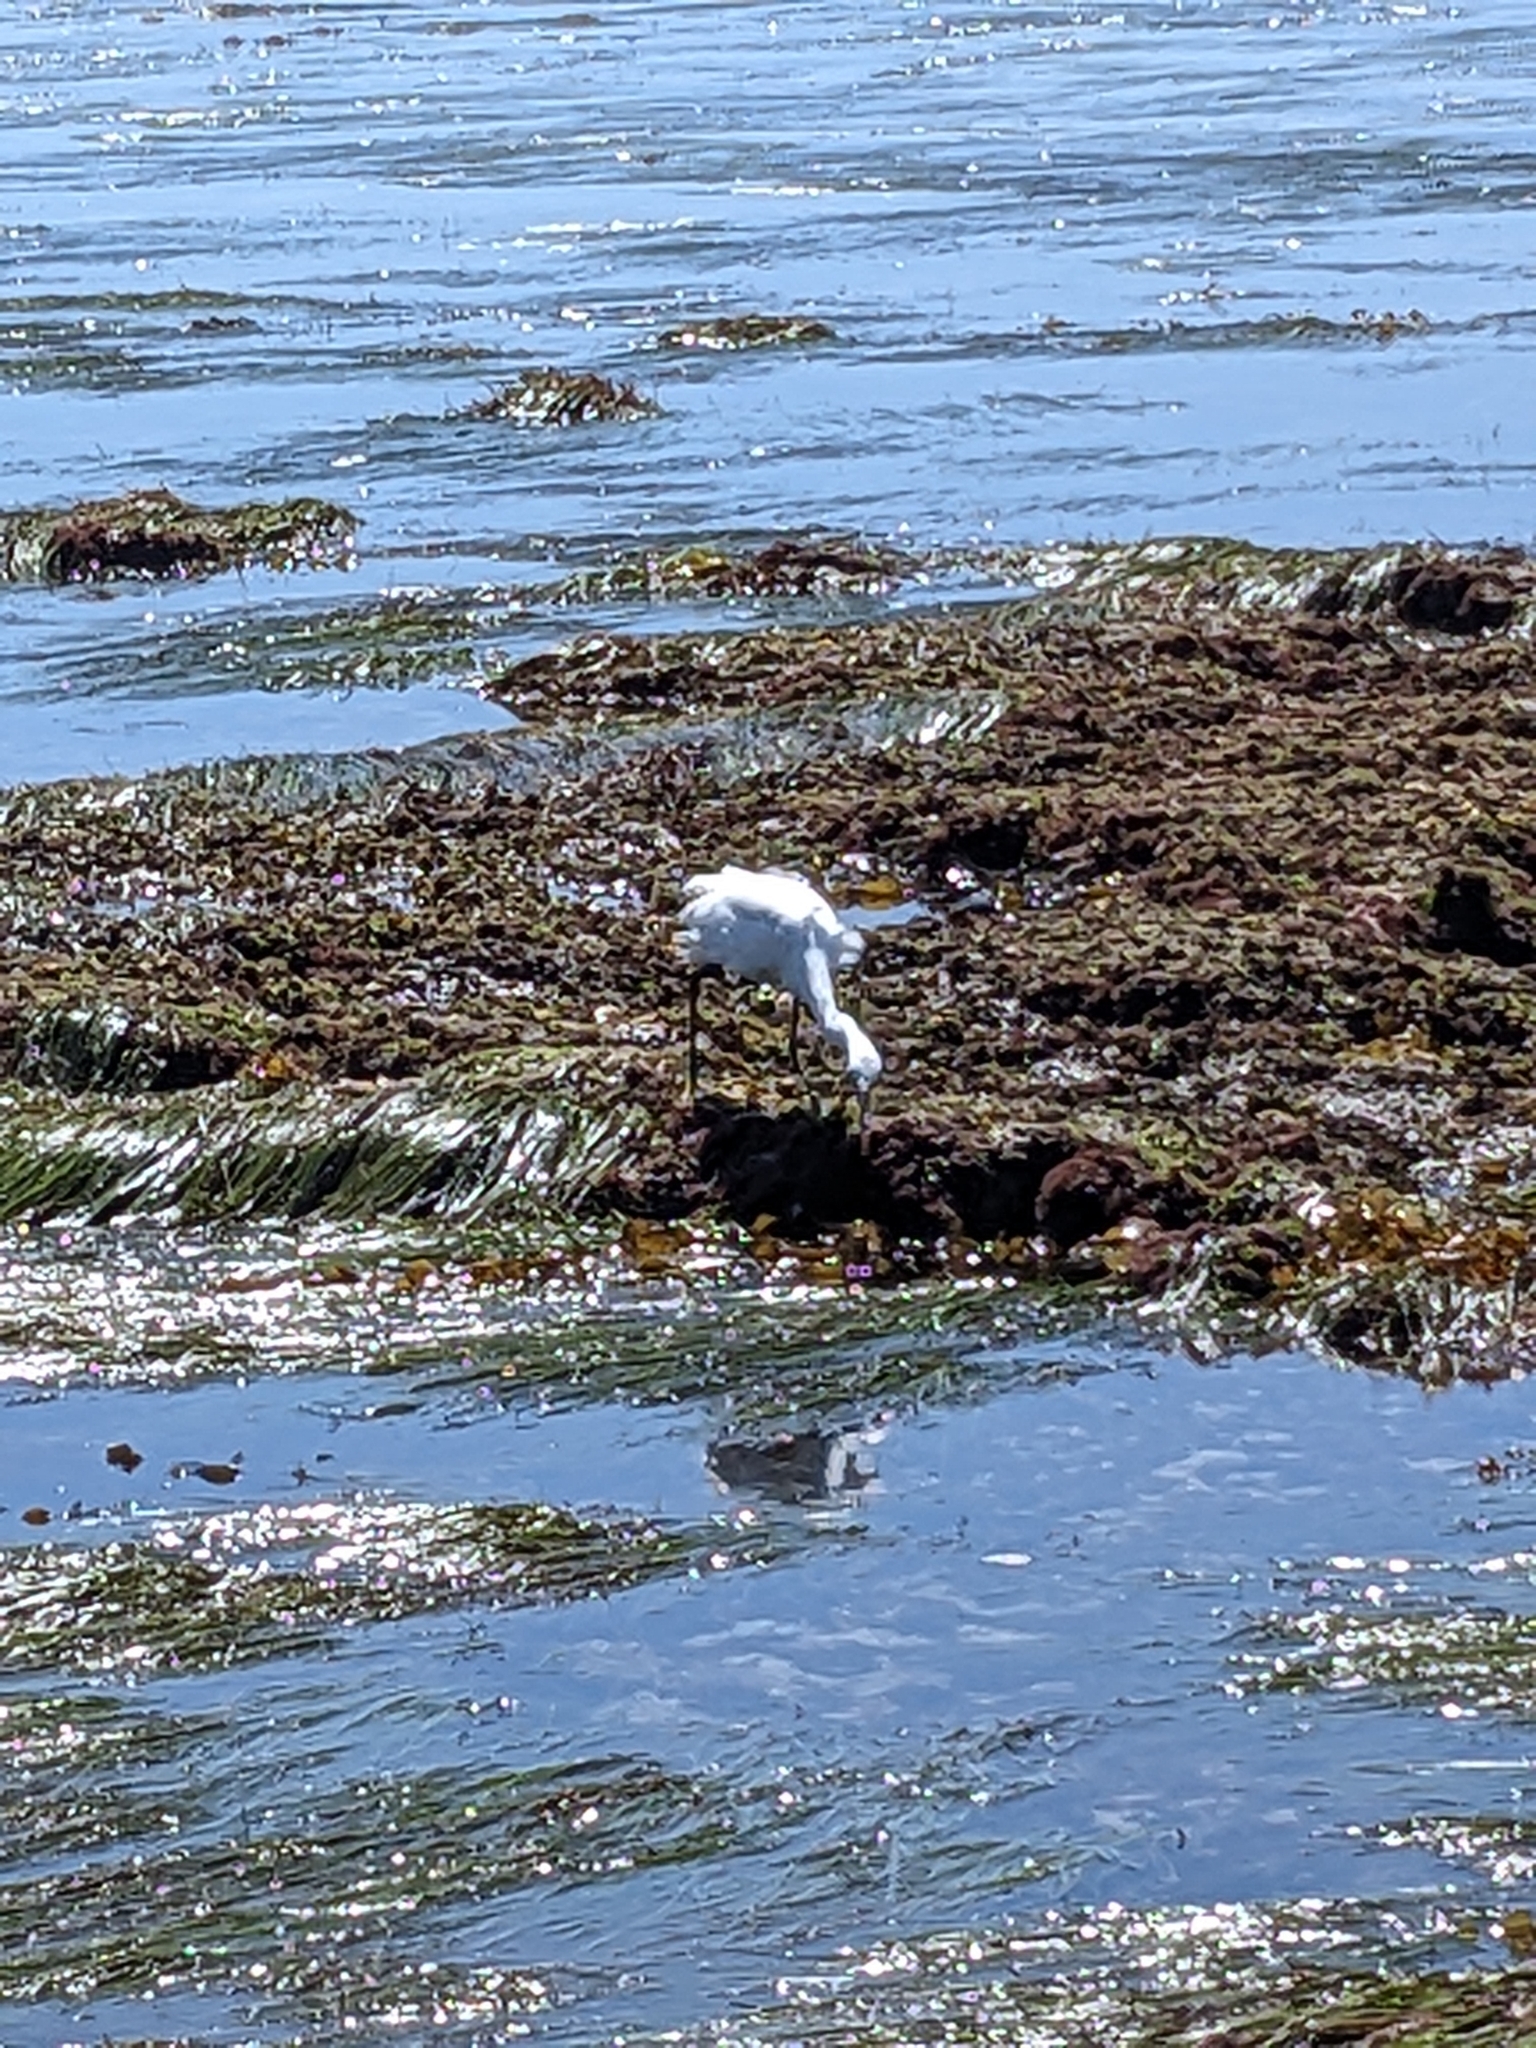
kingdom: Animalia
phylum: Chordata
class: Aves
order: Pelecaniformes
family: Ardeidae
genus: Egretta
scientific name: Egretta thula
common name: Snowy egret
